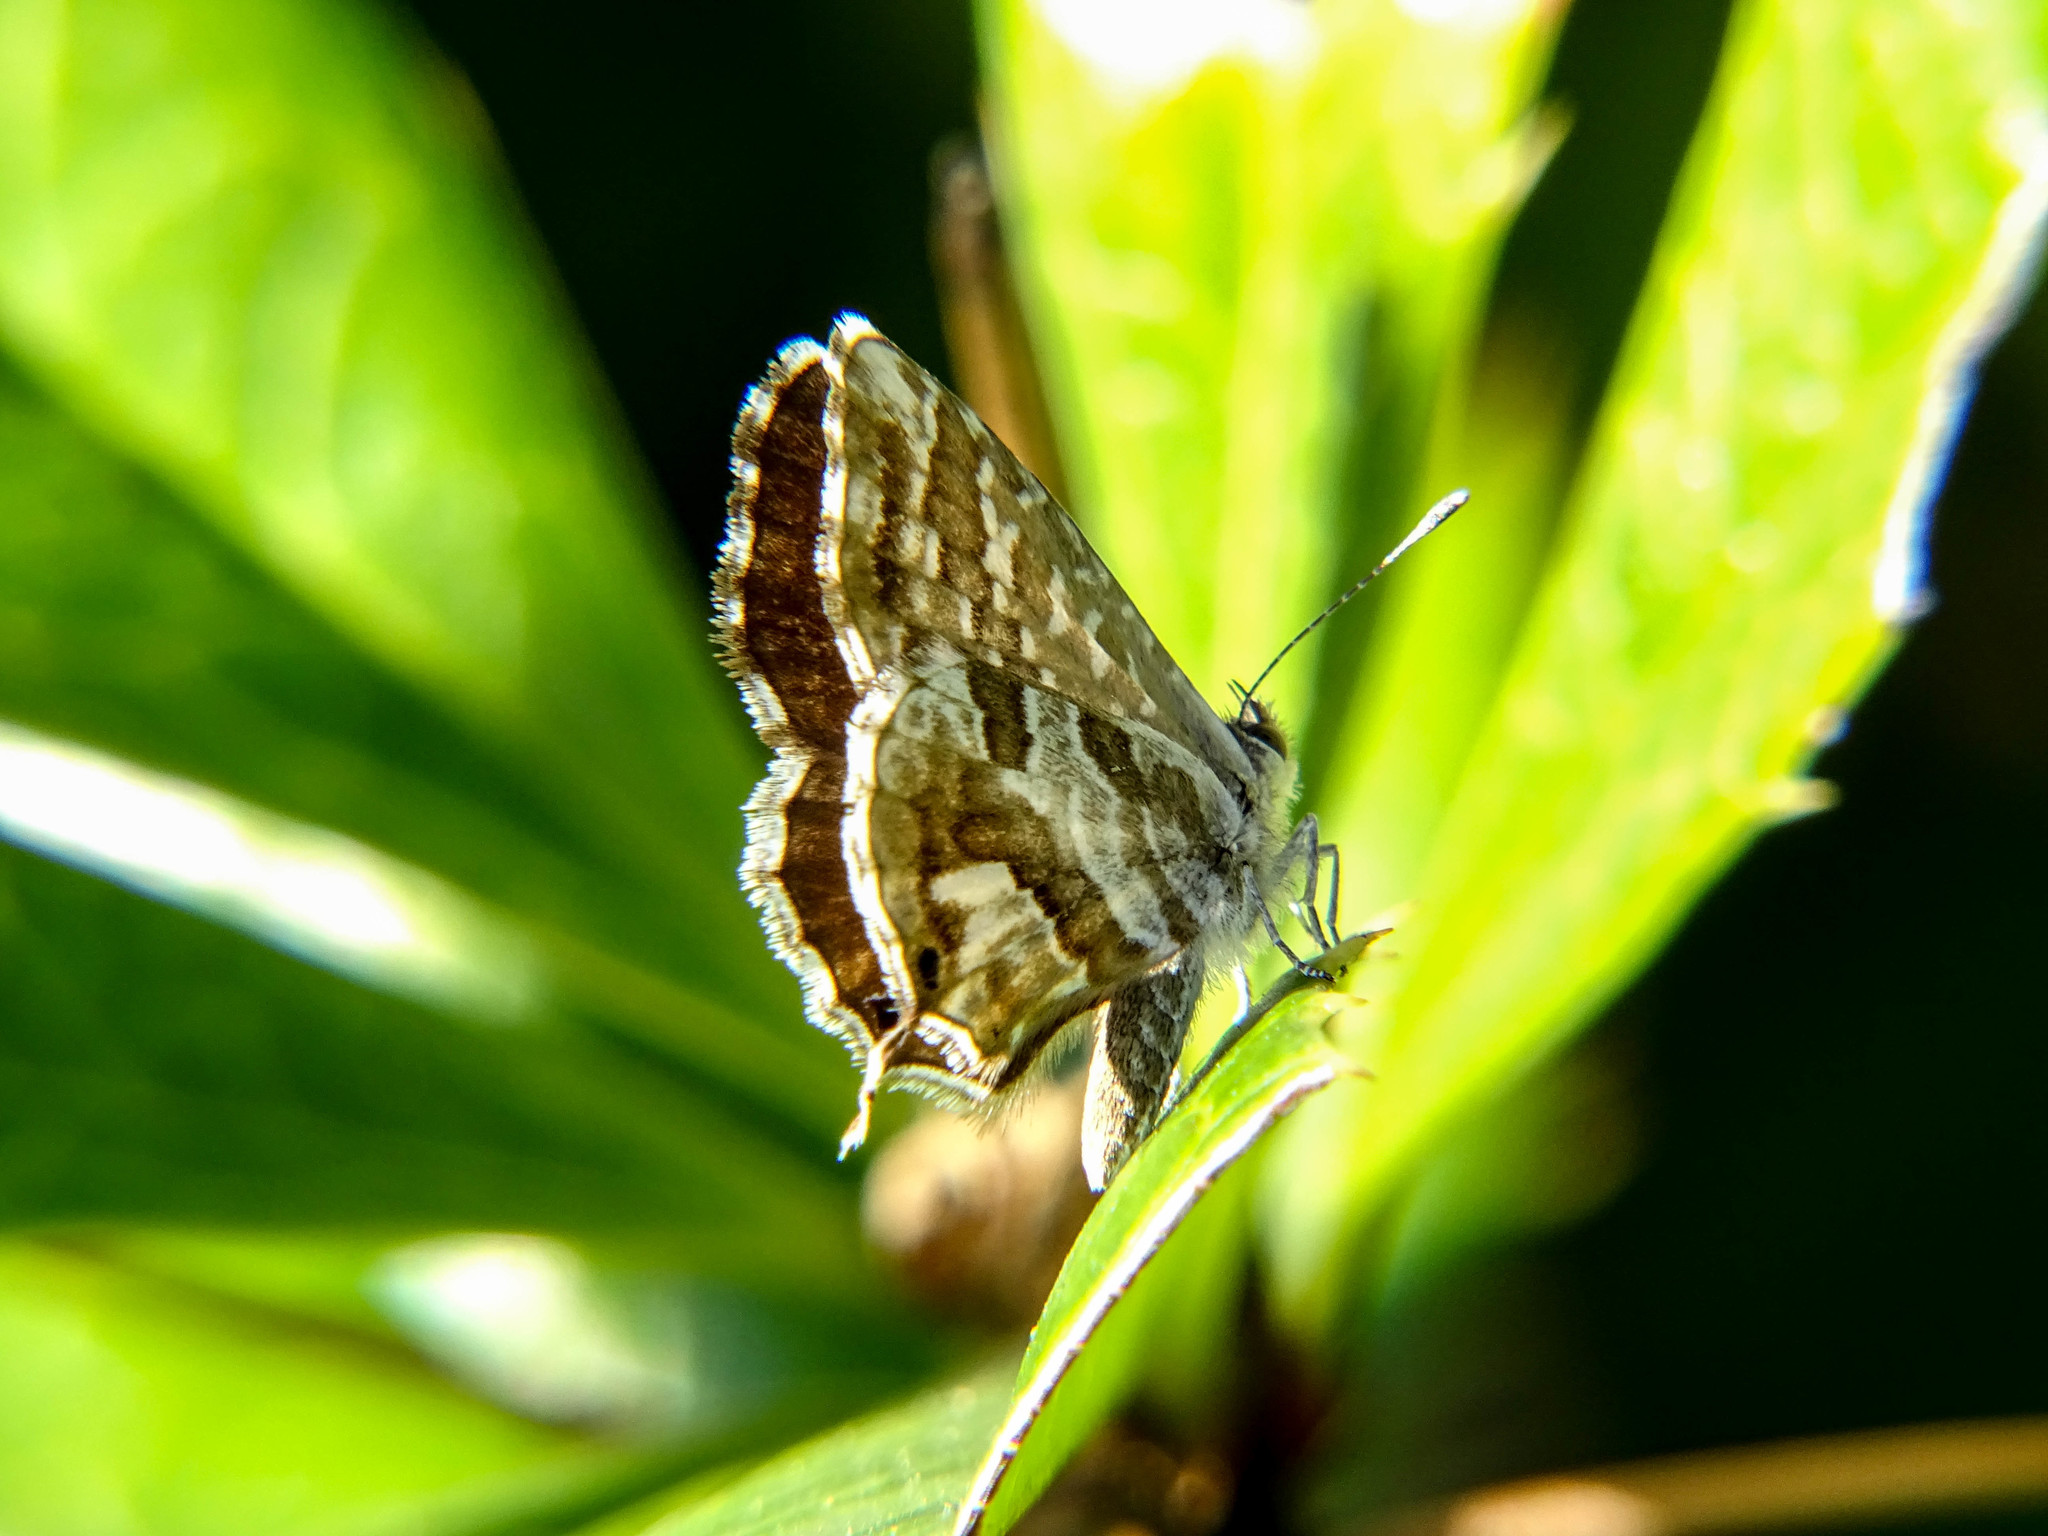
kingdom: Animalia
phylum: Arthropoda
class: Insecta
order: Lepidoptera
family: Lycaenidae
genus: Cacyreus
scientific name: Cacyreus marshalli
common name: Geranium bronze
